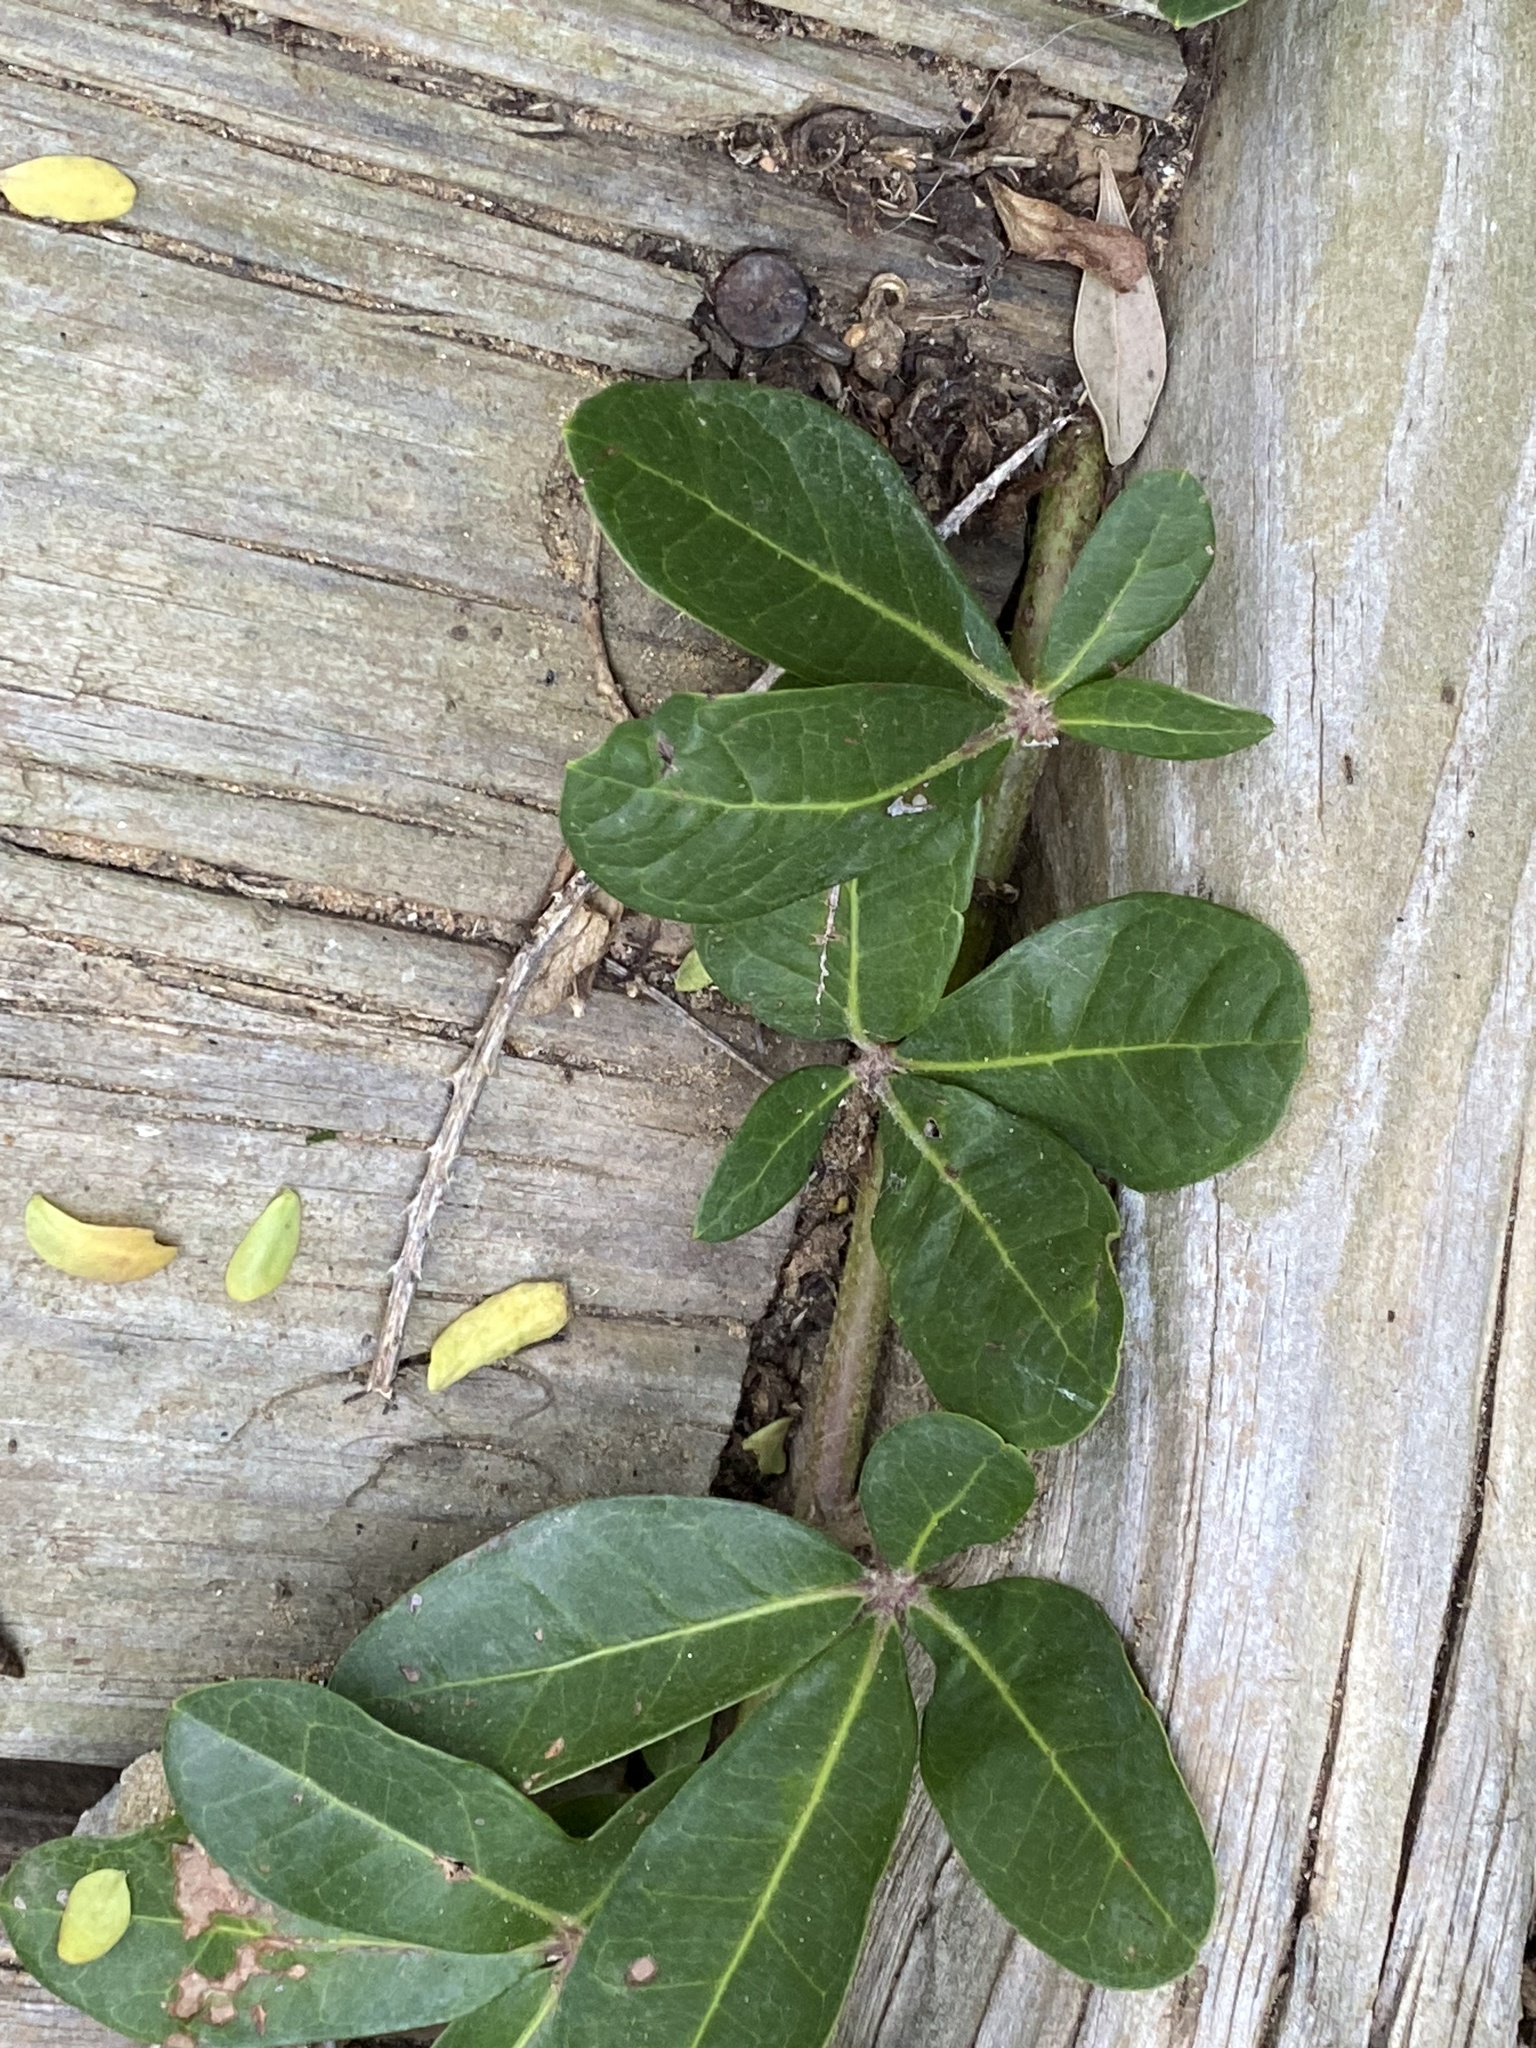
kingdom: Plantae
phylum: Tracheophyta
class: Magnoliopsida
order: Vitales
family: Vitaceae
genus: Rhoicissus
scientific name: Rhoicissus digitata
